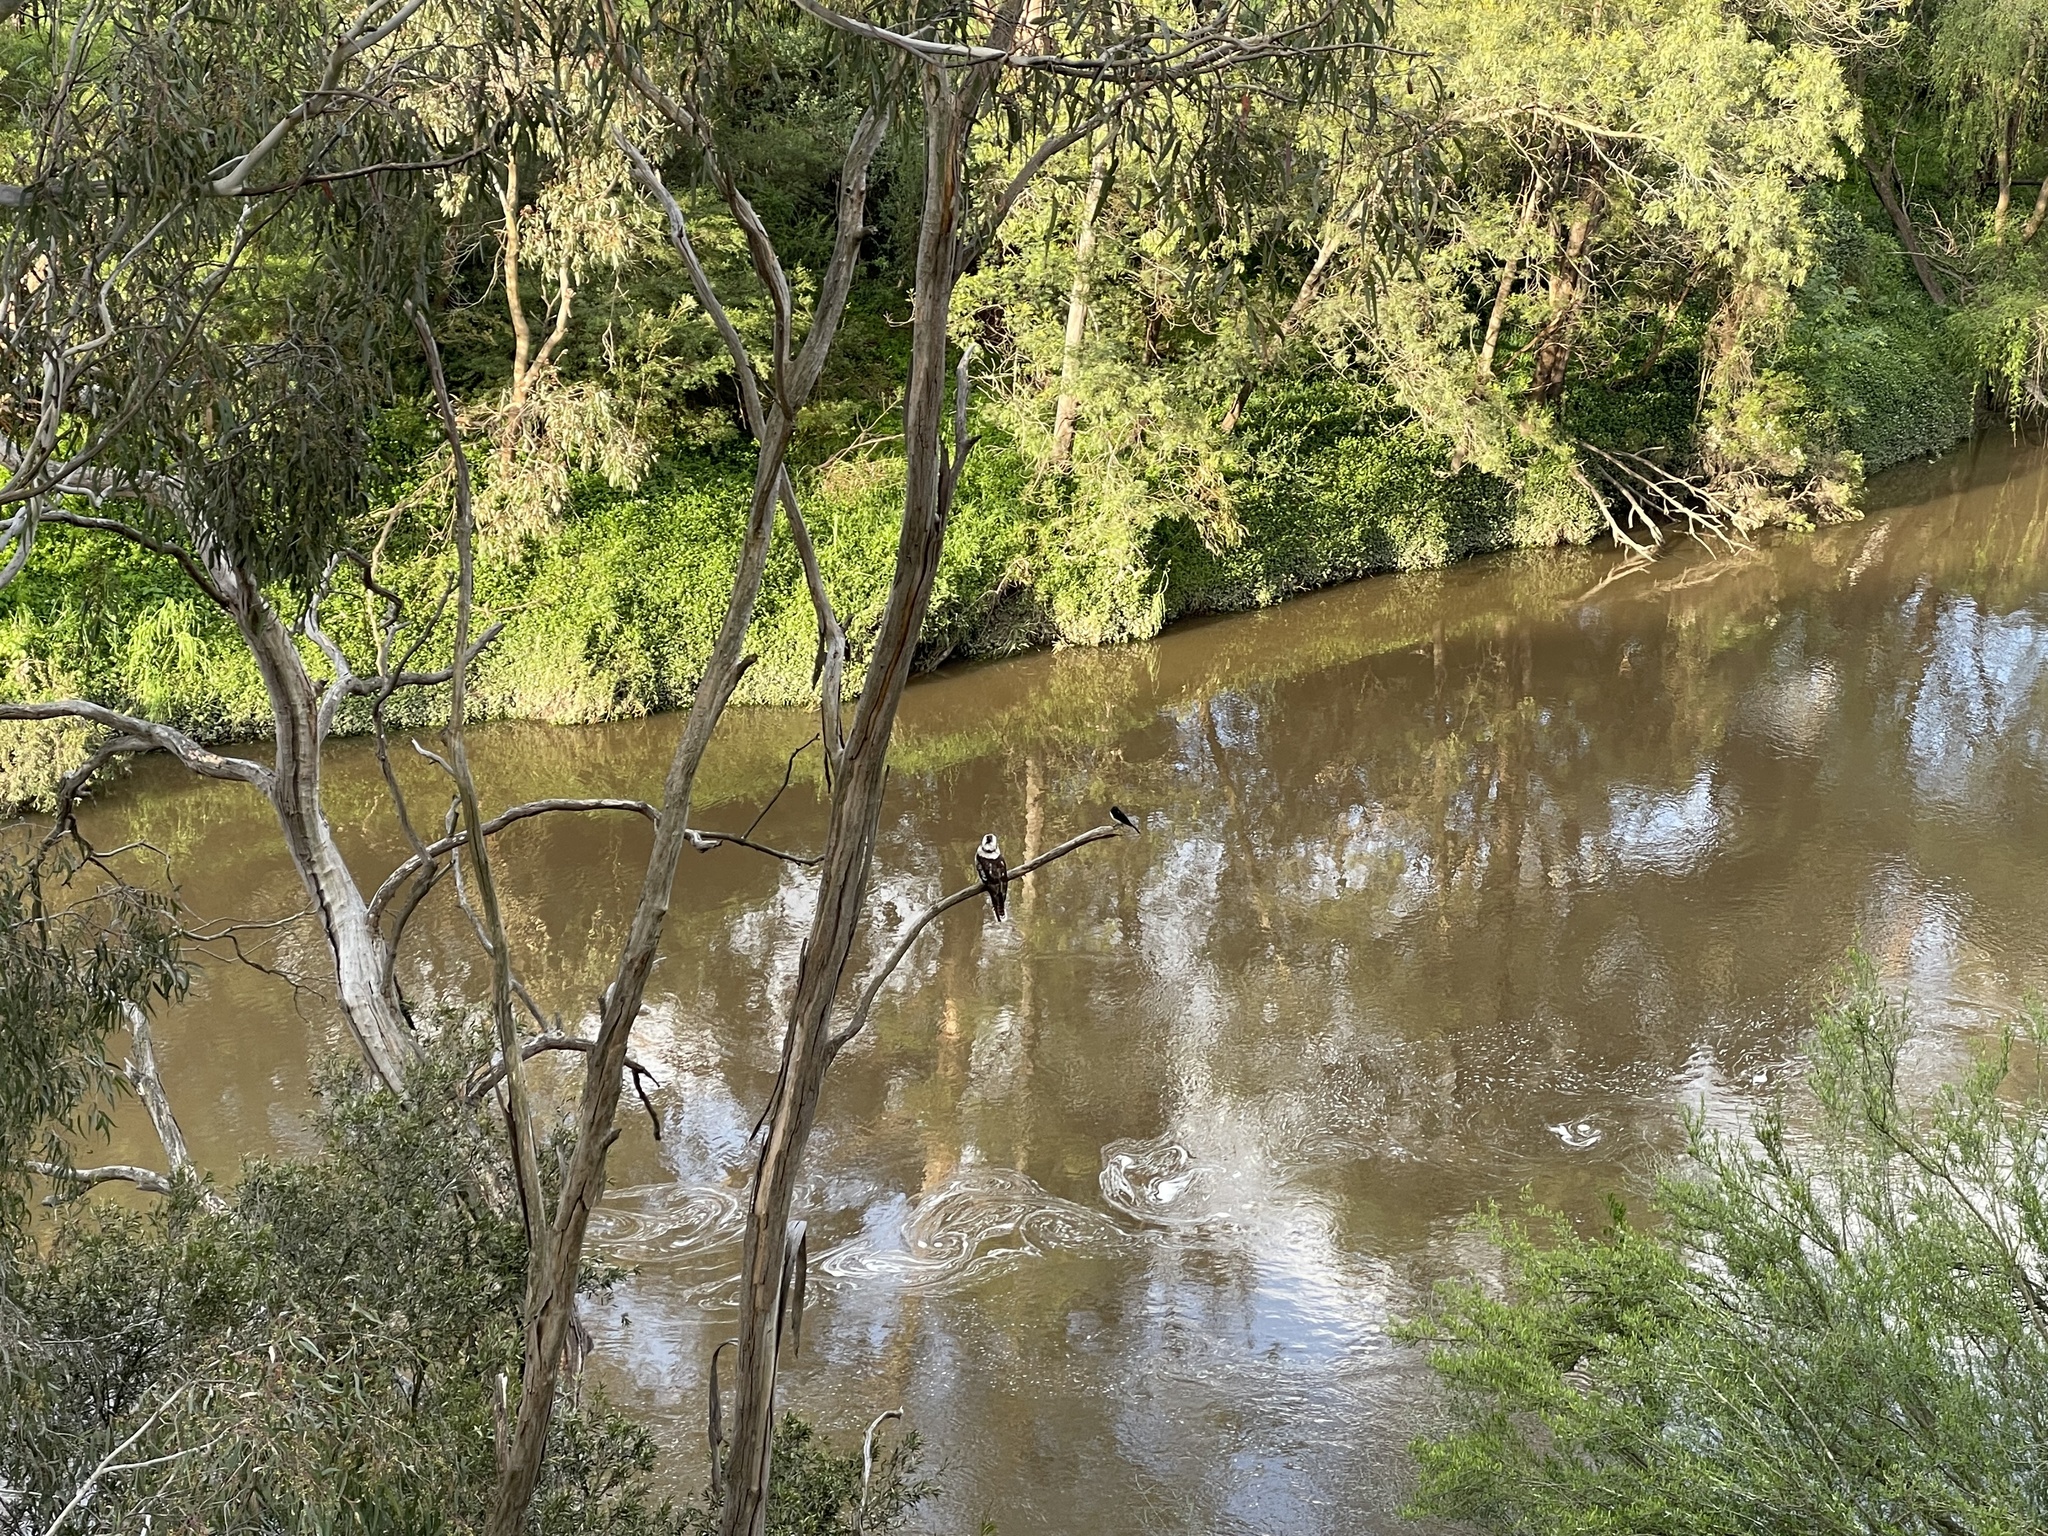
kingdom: Animalia
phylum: Chordata
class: Aves
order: Coraciiformes
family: Alcedinidae
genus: Dacelo
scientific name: Dacelo novaeguineae
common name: Laughing kookaburra
